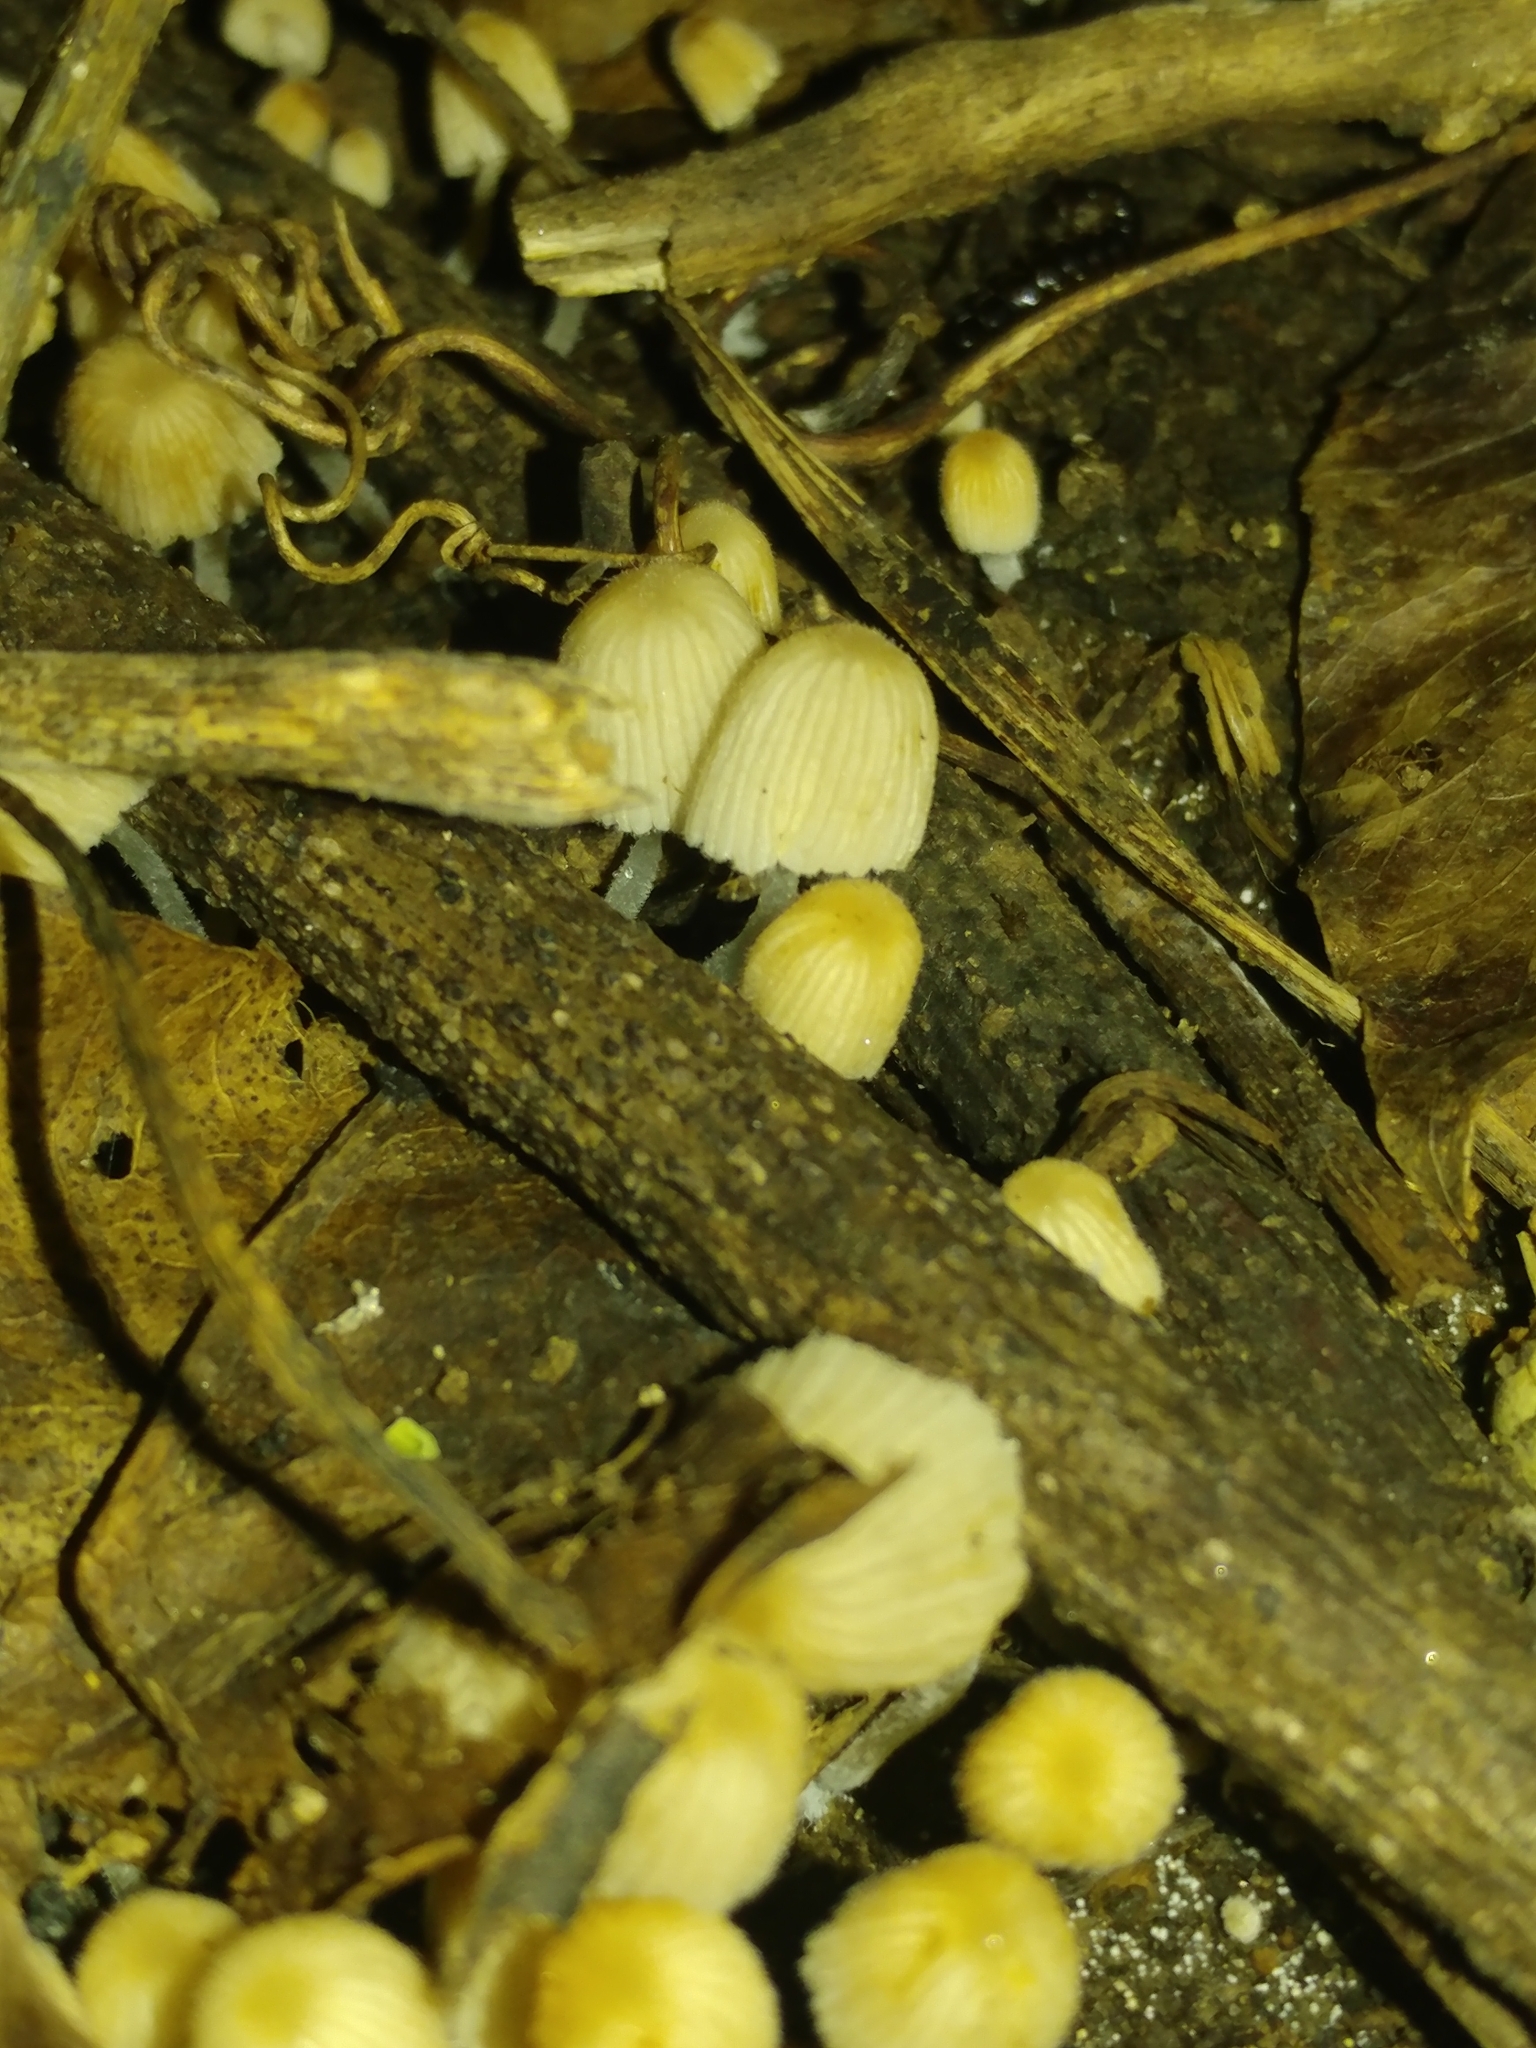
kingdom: Fungi
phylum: Basidiomycota
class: Agaricomycetes
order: Agaricales
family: Psathyrellaceae
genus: Coprinellus
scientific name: Coprinellus disseminatus
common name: Fairies' bonnets
